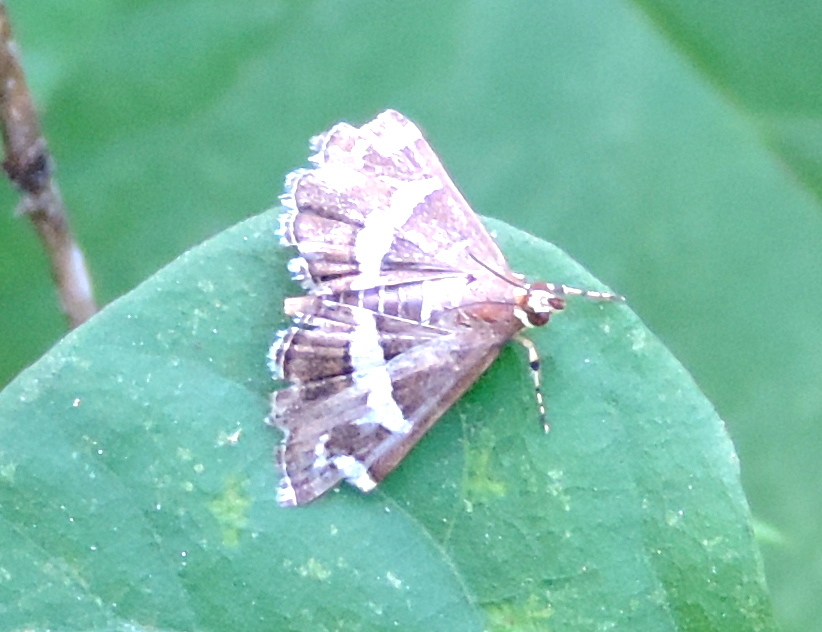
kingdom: Animalia
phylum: Arthropoda
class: Insecta
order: Lepidoptera
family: Crambidae
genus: Spoladea
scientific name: Spoladea recurvalis
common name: Beet webworm moth
